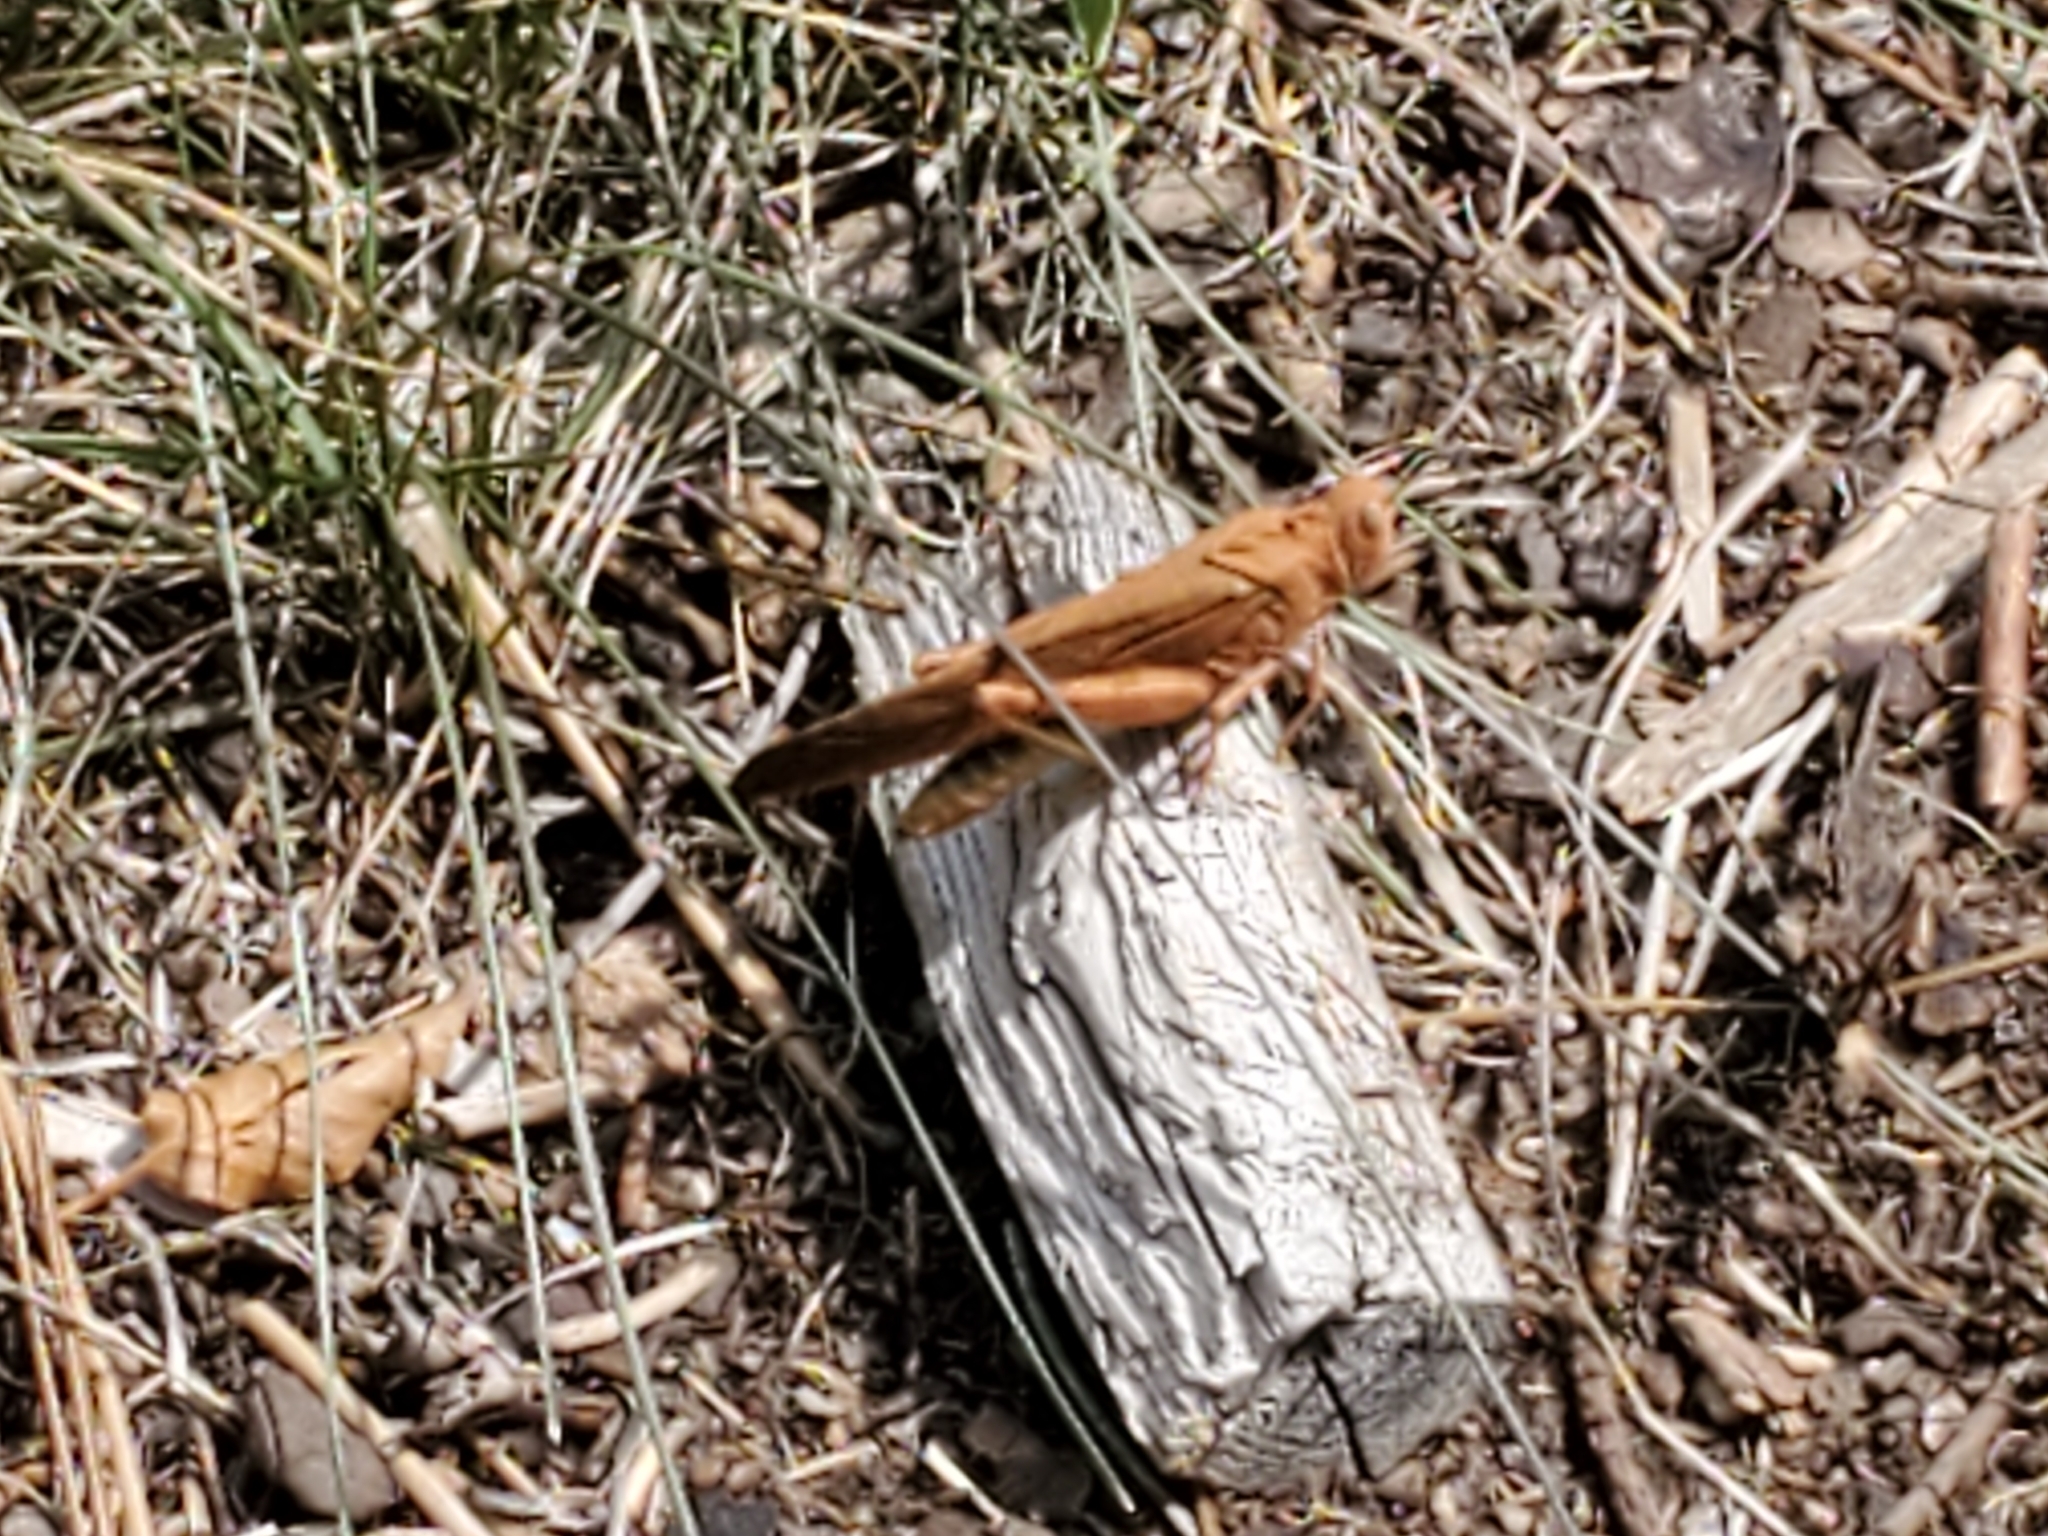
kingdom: Animalia
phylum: Arthropoda
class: Insecta
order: Orthoptera
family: Acrididae
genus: Dissosteira
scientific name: Dissosteira carolina
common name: Carolina grasshopper
